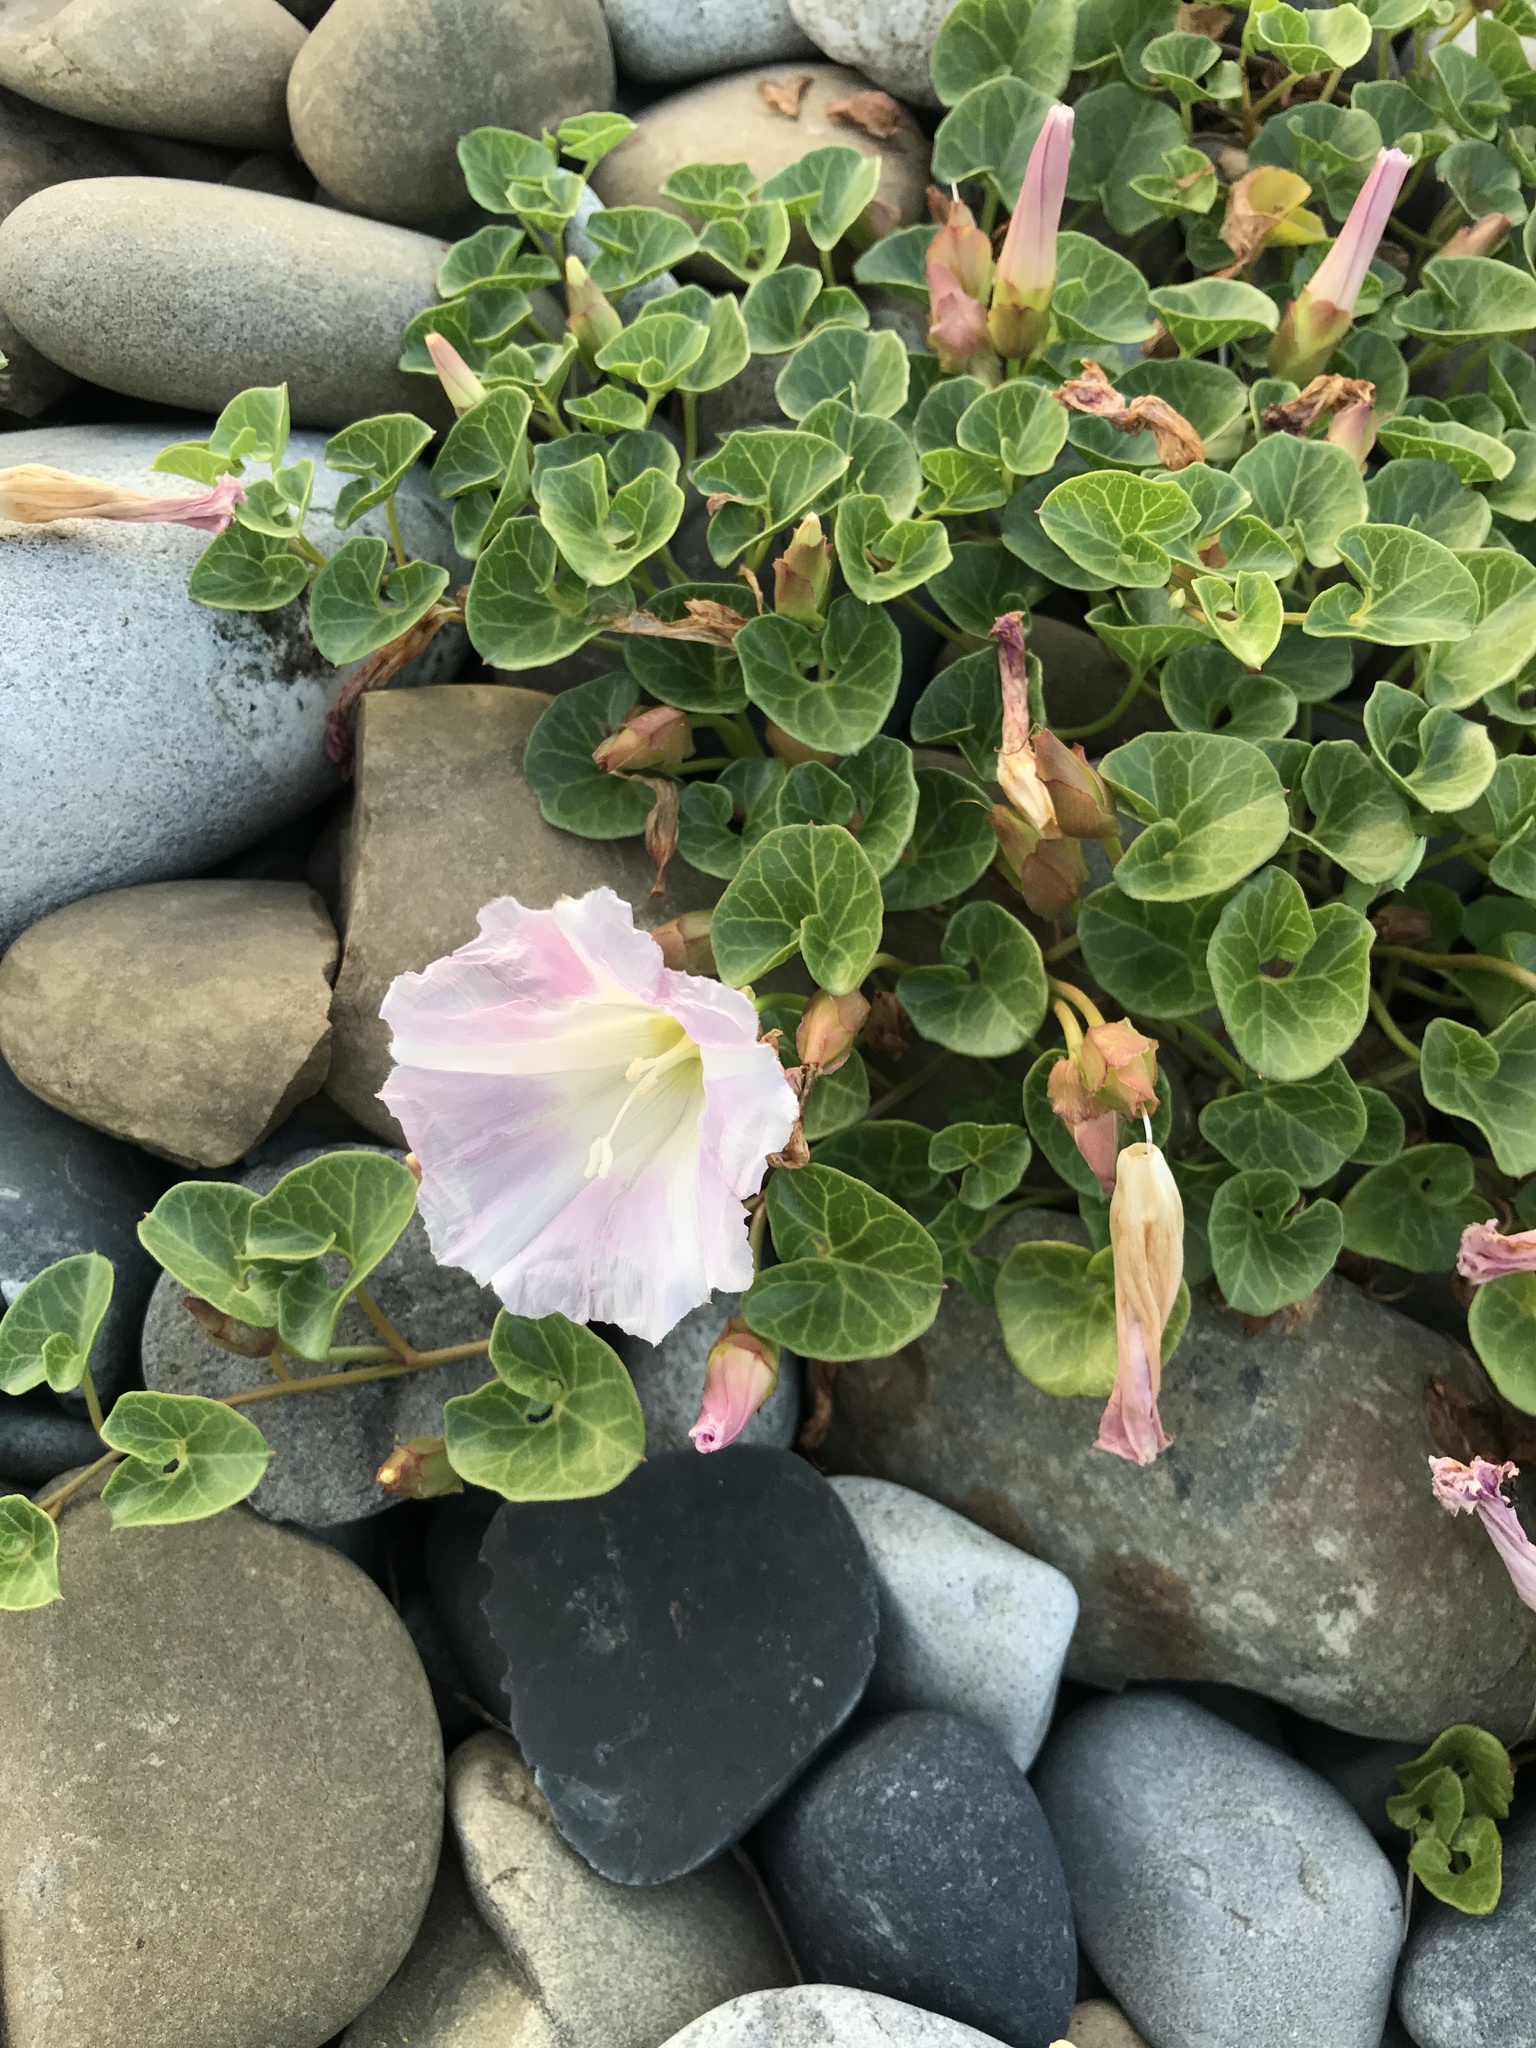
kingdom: Plantae
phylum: Tracheophyta
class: Magnoliopsida
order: Solanales
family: Convolvulaceae
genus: Calystegia
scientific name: Calystegia soldanella
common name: Sea bindweed
